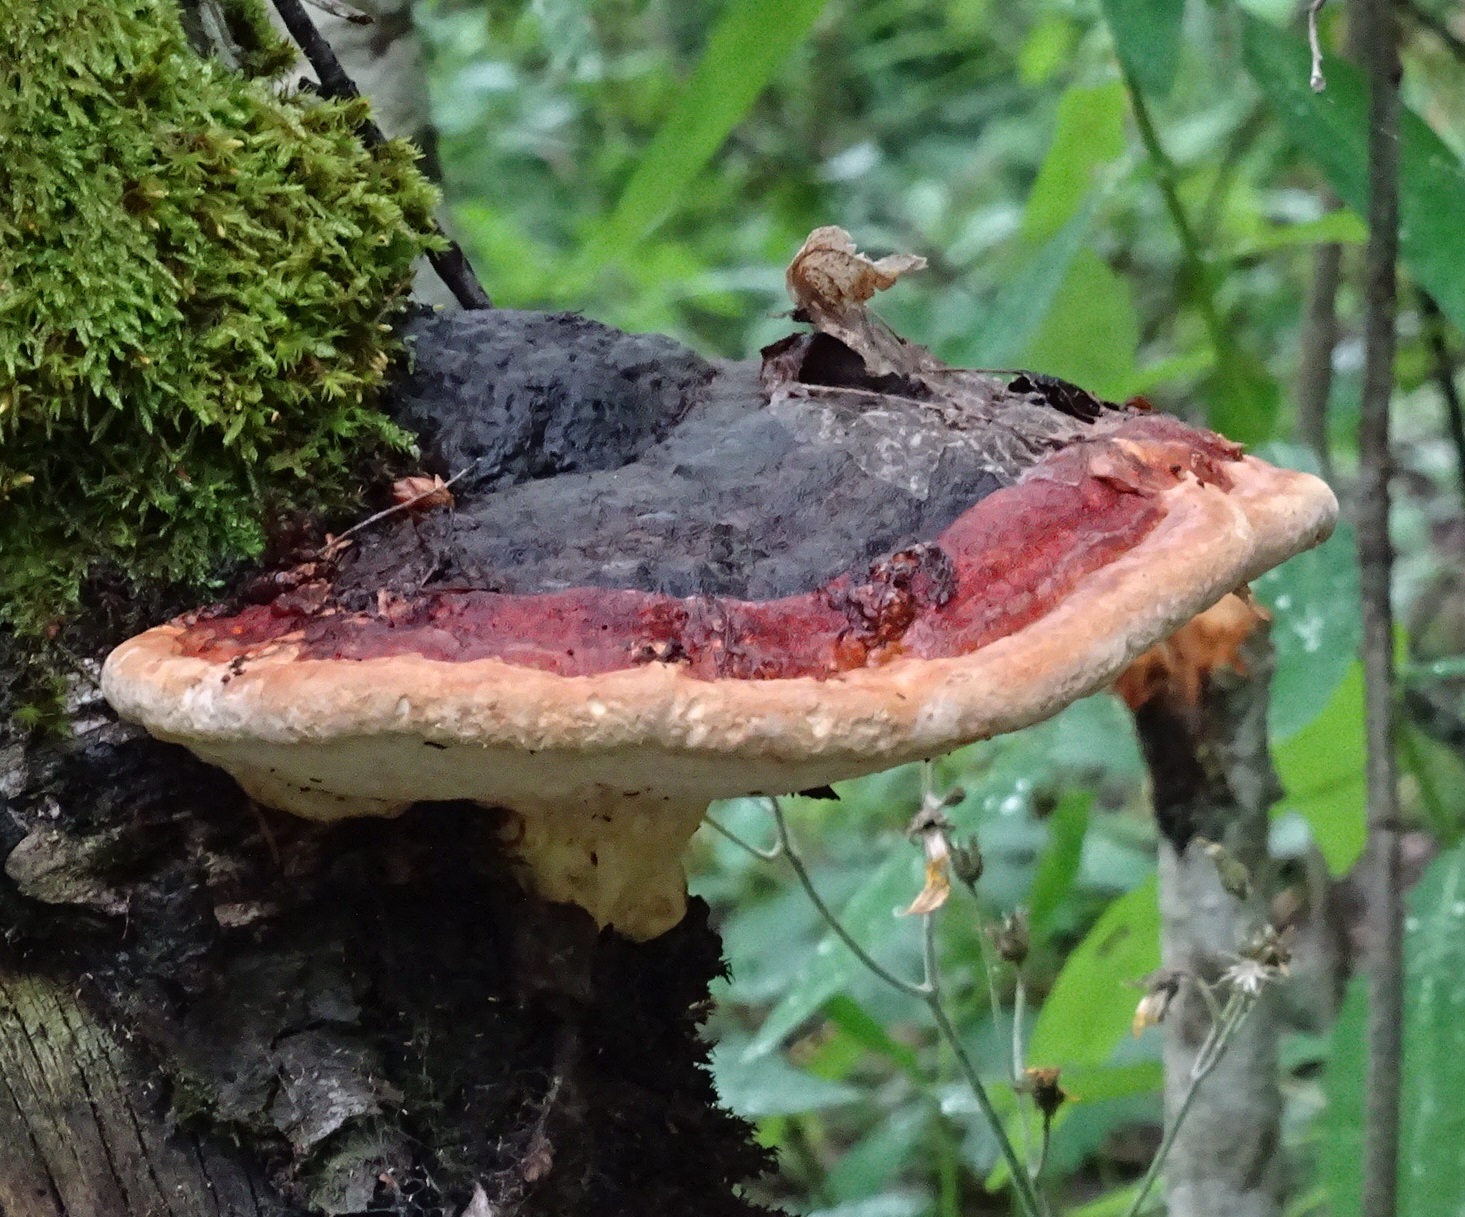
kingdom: Fungi
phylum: Basidiomycota
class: Agaricomycetes
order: Polyporales
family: Fomitopsidaceae
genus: Fomitopsis
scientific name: Fomitopsis pinicola
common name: Red-belted bracket
